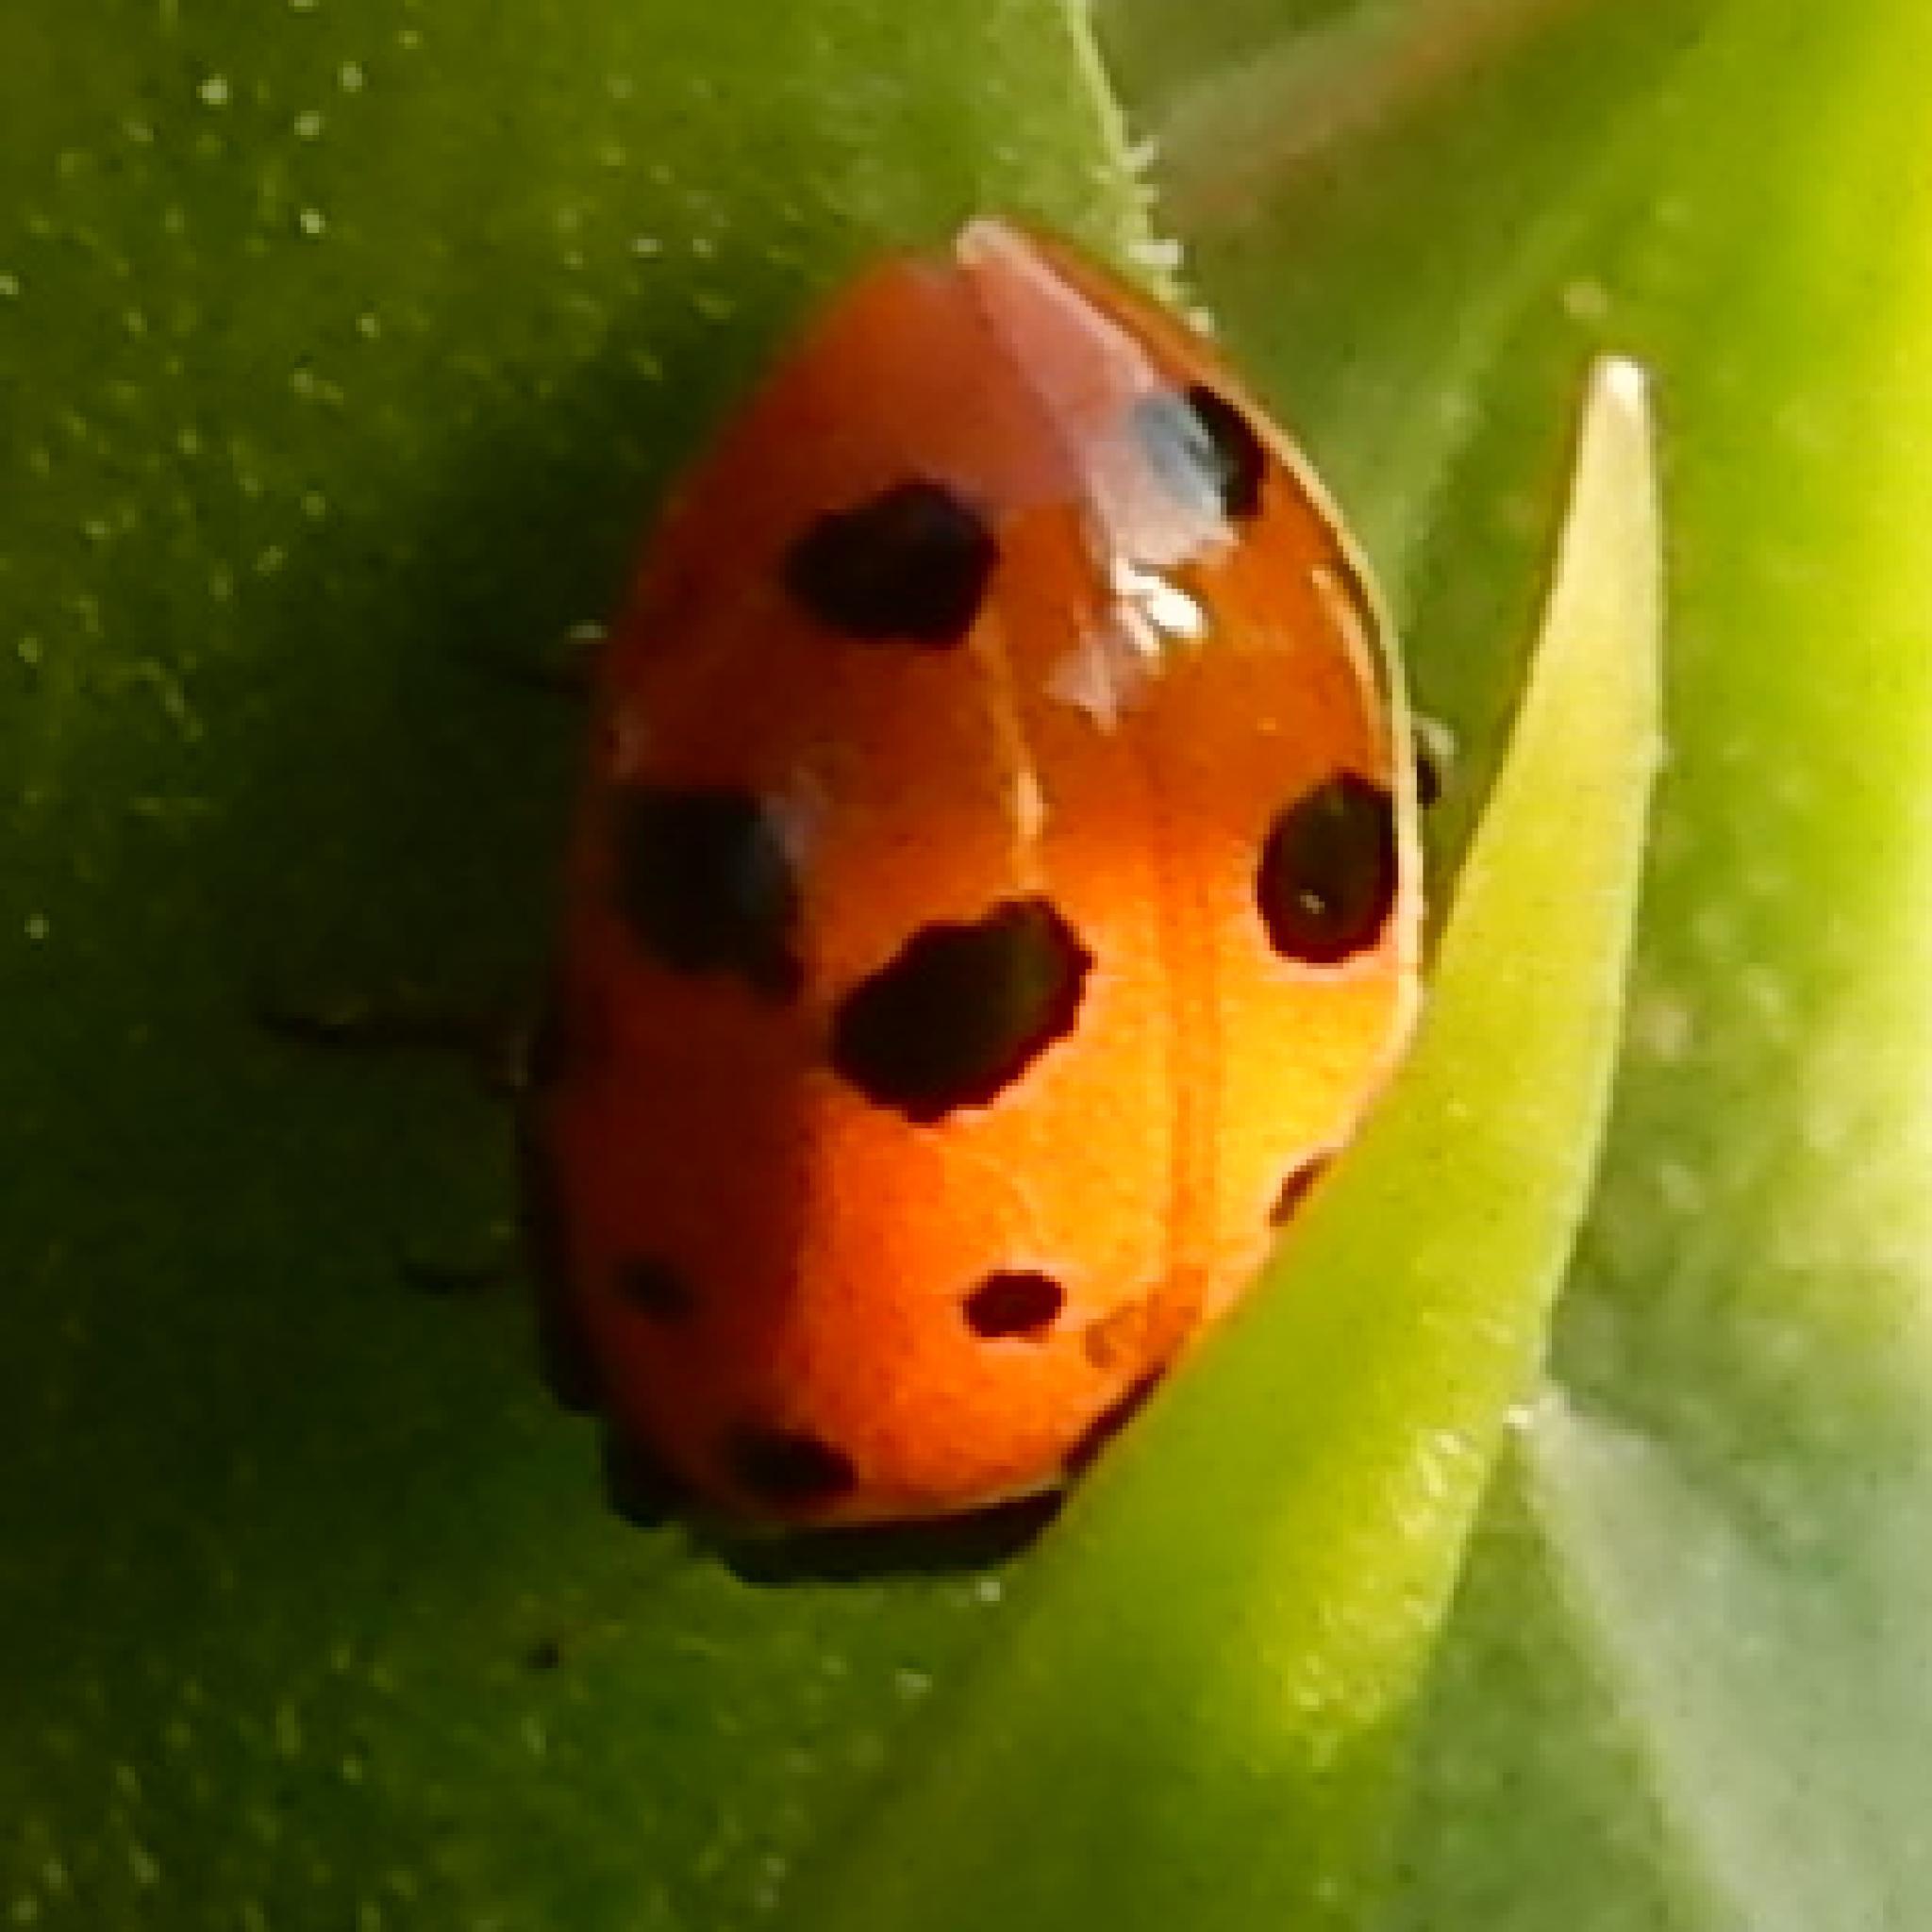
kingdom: Animalia
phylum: Arthropoda
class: Insecta
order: Coleoptera
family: Coccinellidae
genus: Hippodamia
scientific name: Hippodamia variegata
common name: Ladybird beetle
